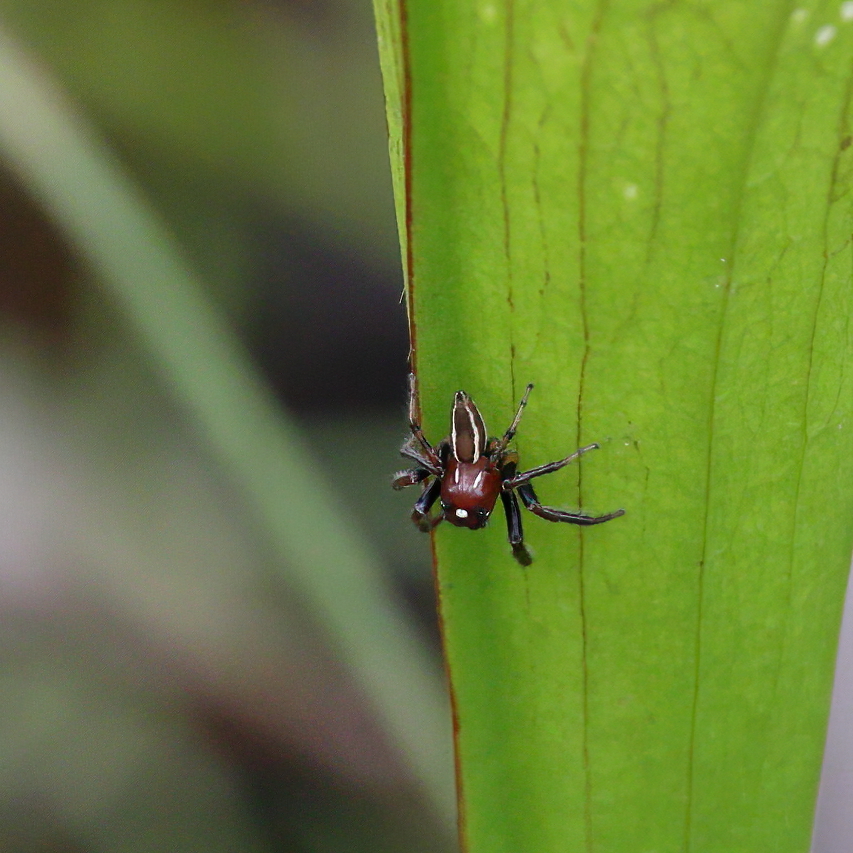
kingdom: Animalia
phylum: Arthropoda
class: Arachnida
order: Araneae
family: Salticidae
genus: Colonus
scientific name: Colonus sylvanus
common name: Jumping spiders
